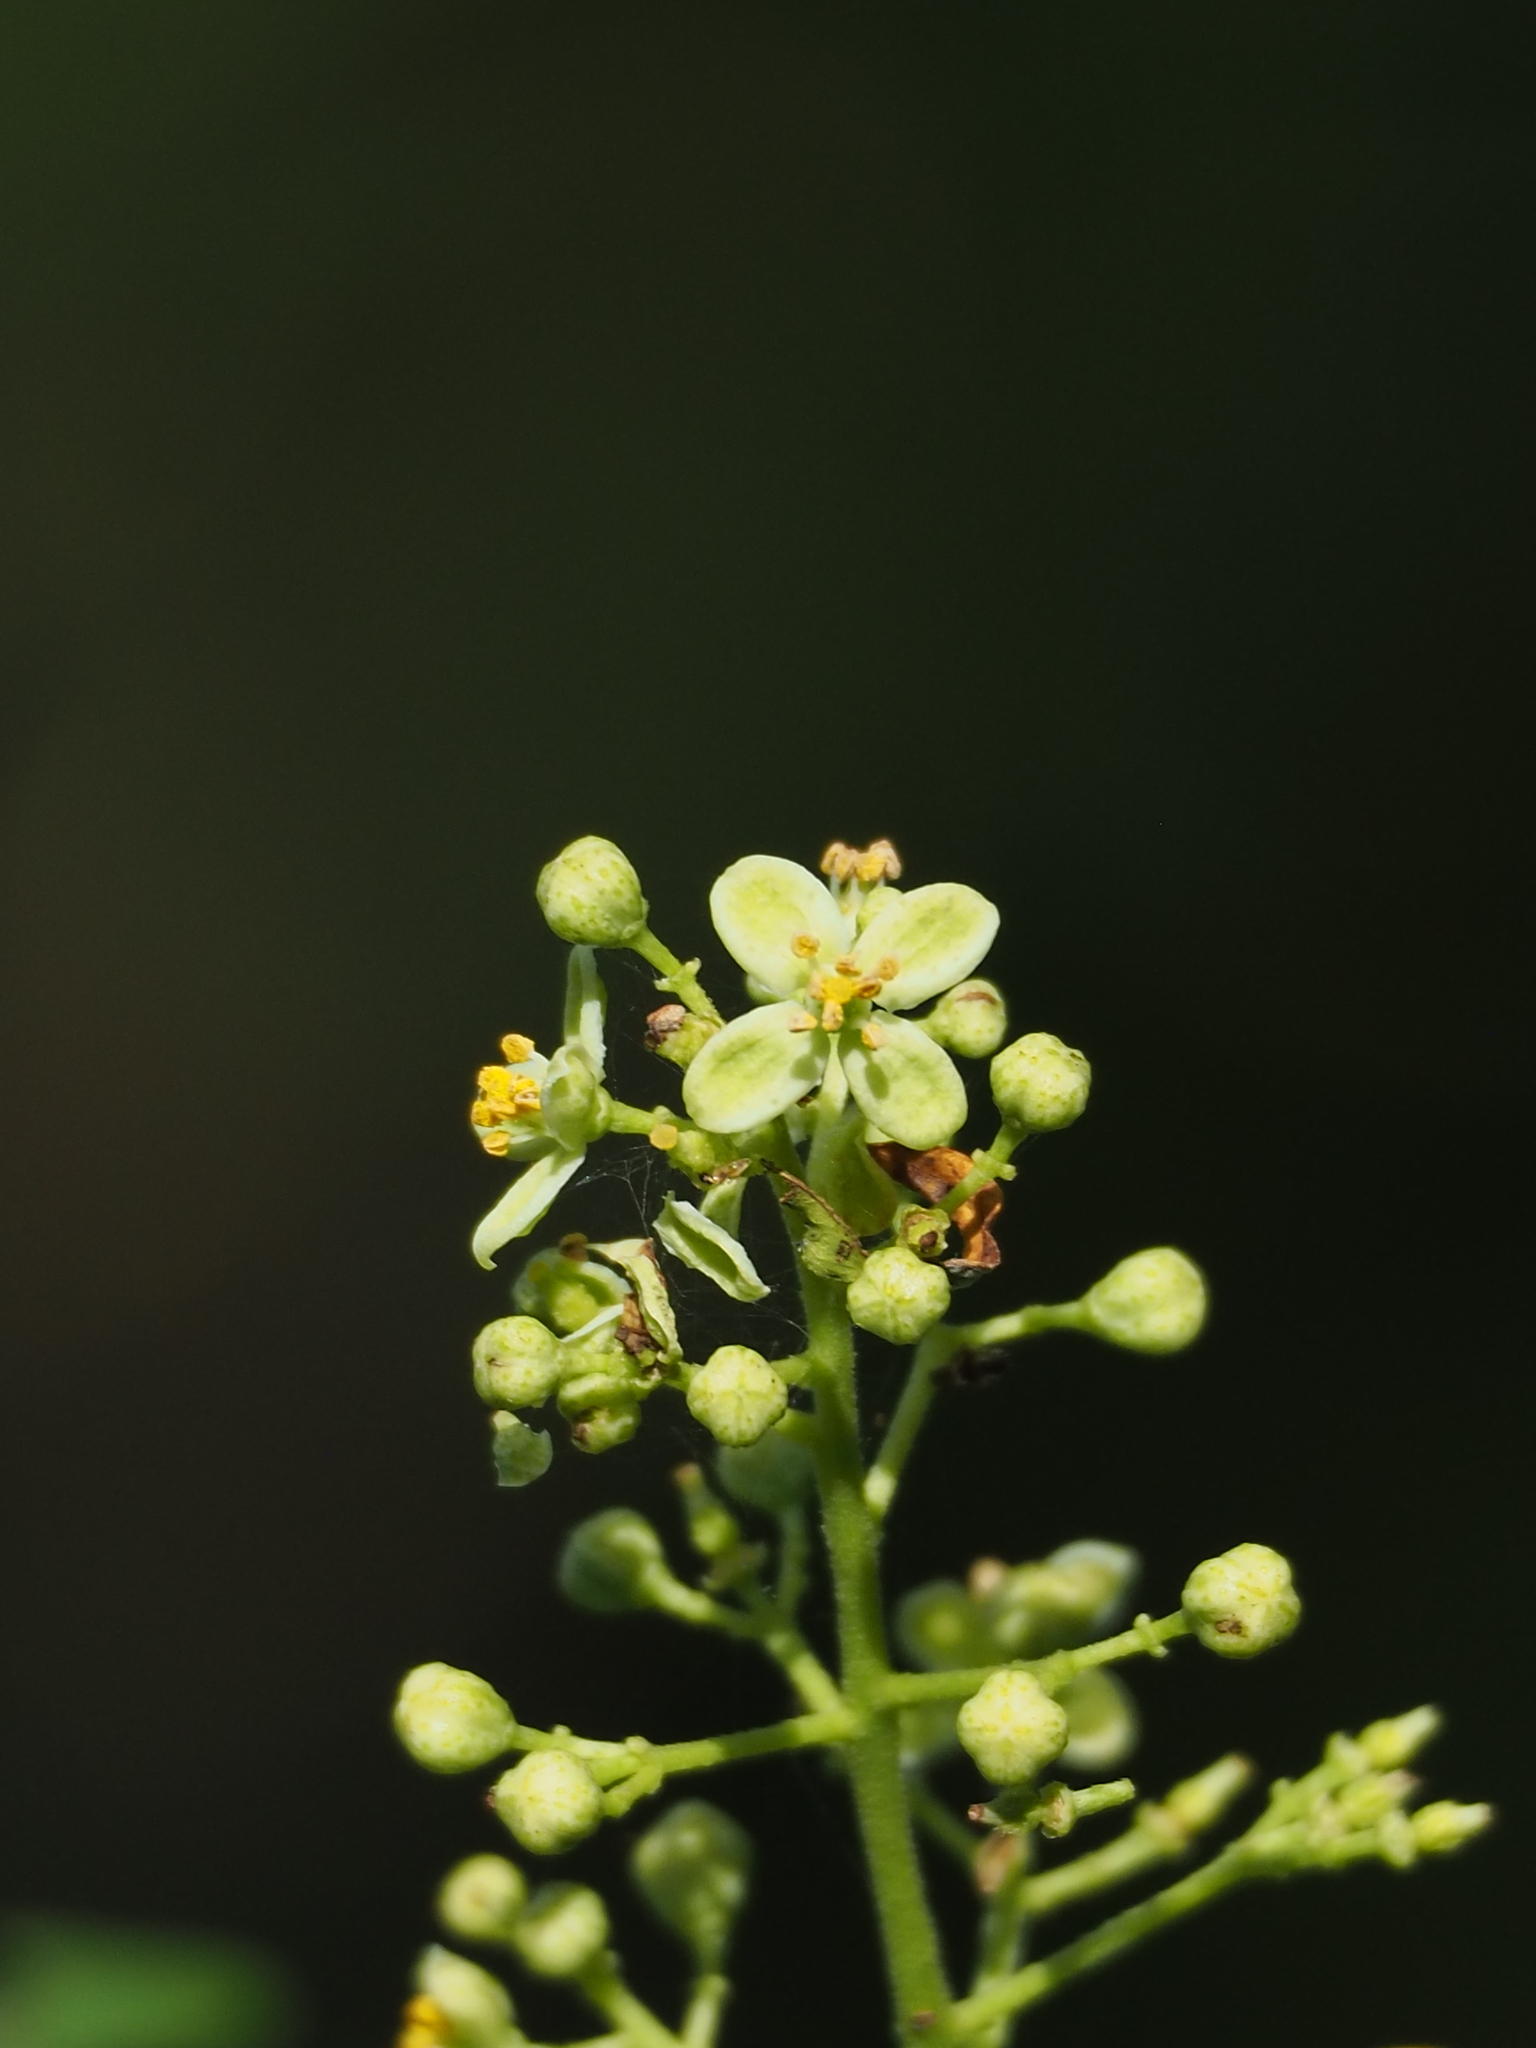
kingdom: Plantae
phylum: Tracheophyta
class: Magnoliopsida
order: Sapindales
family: Rutaceae
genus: Clausena
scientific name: Clausena excavata
